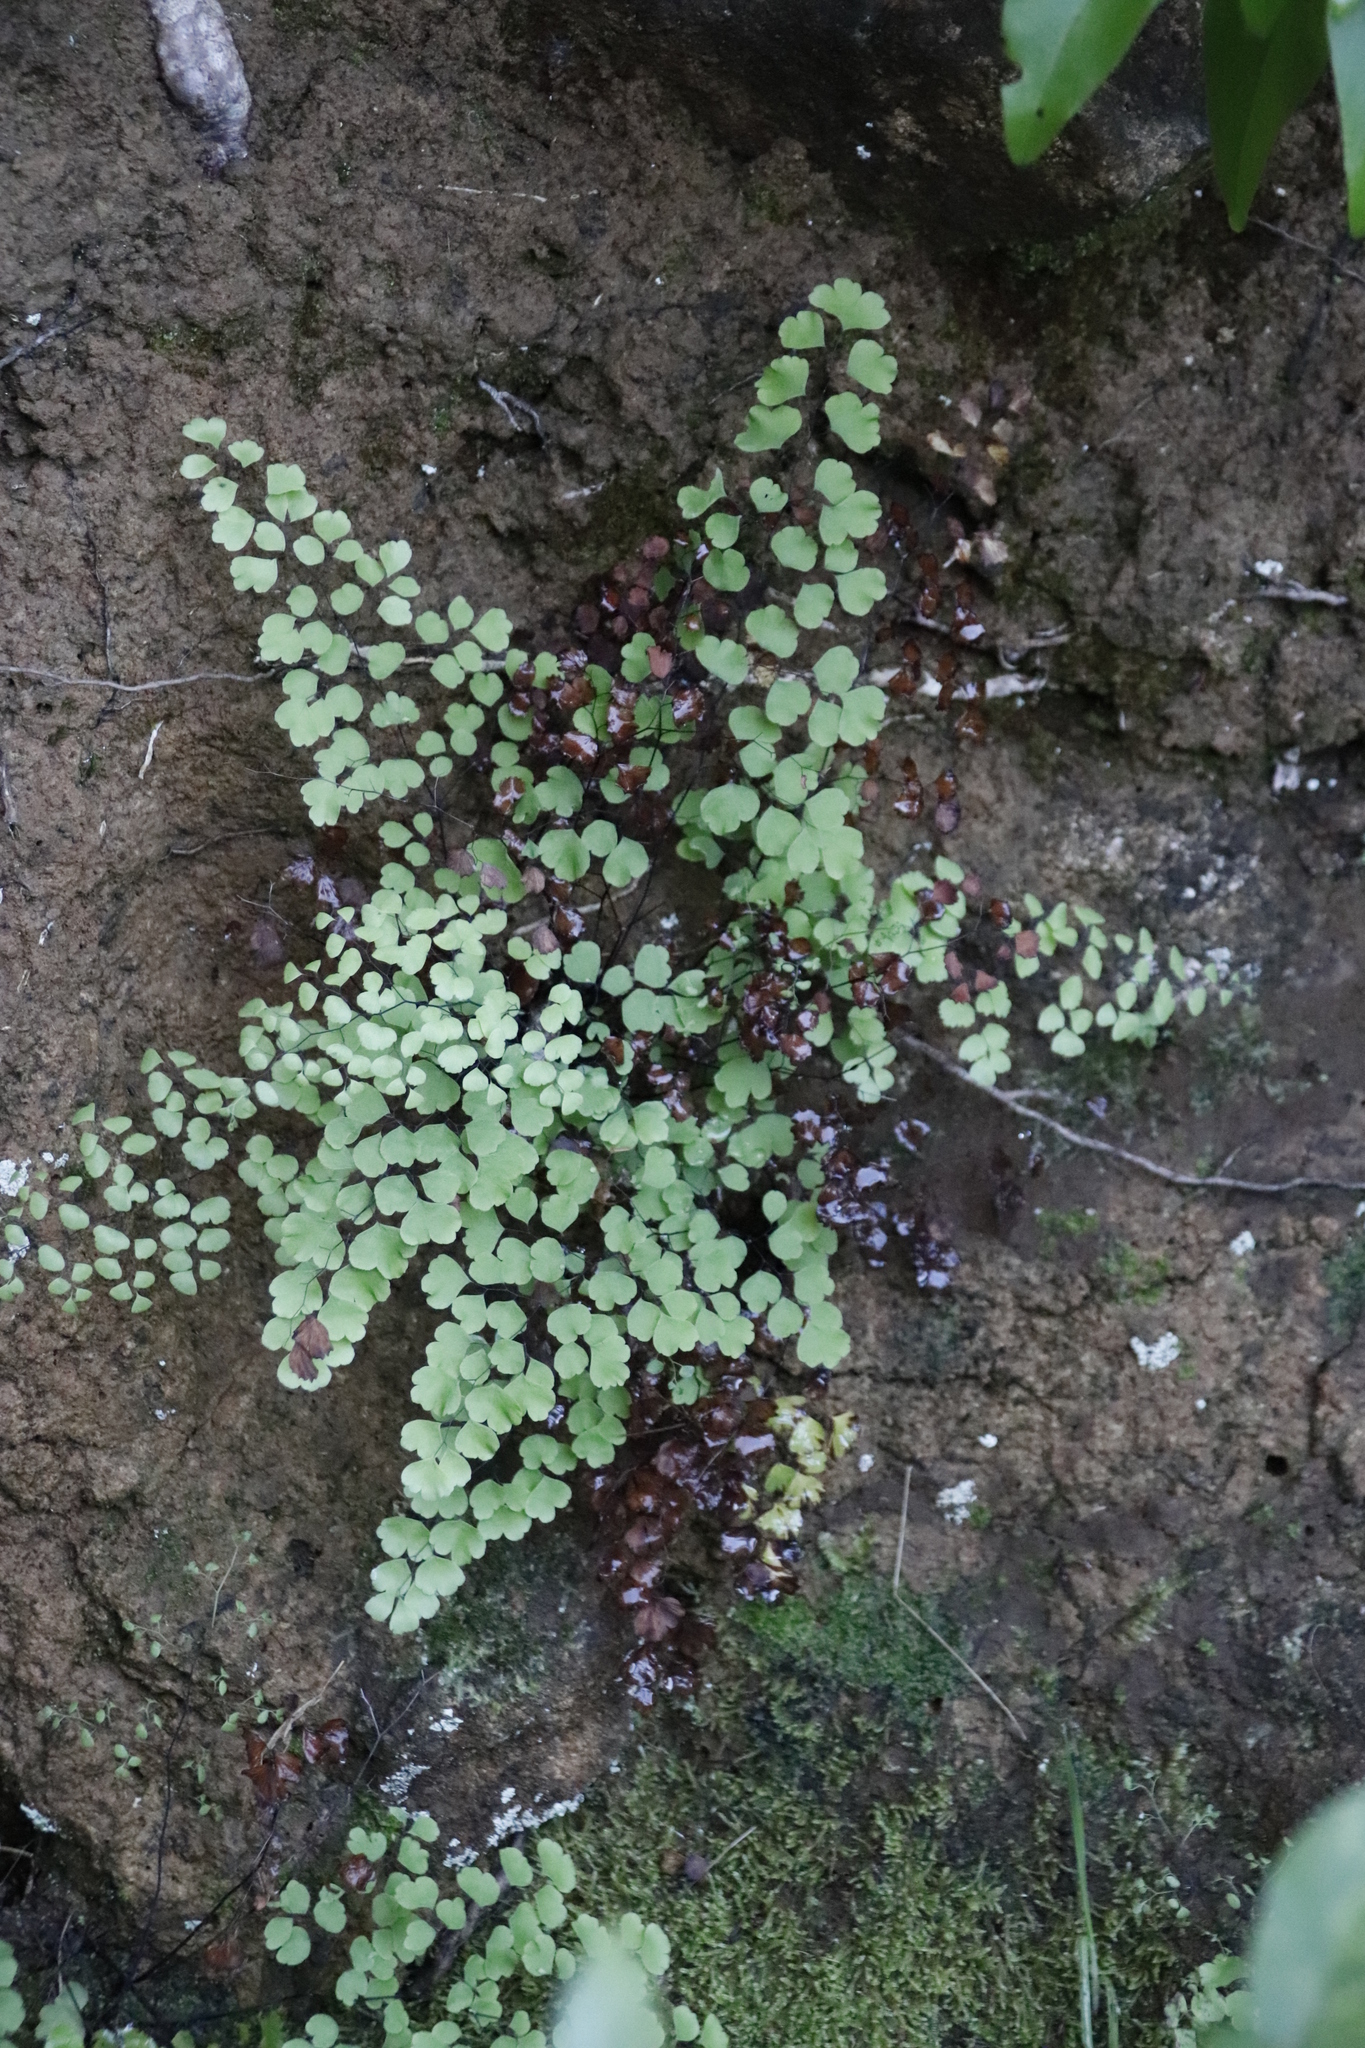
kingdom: Plantae
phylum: Tracheophyta
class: Polypodiopsida
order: Polypodiales
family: Pteridaceae
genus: Adiantum
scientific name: Adiantum aethiopicum
